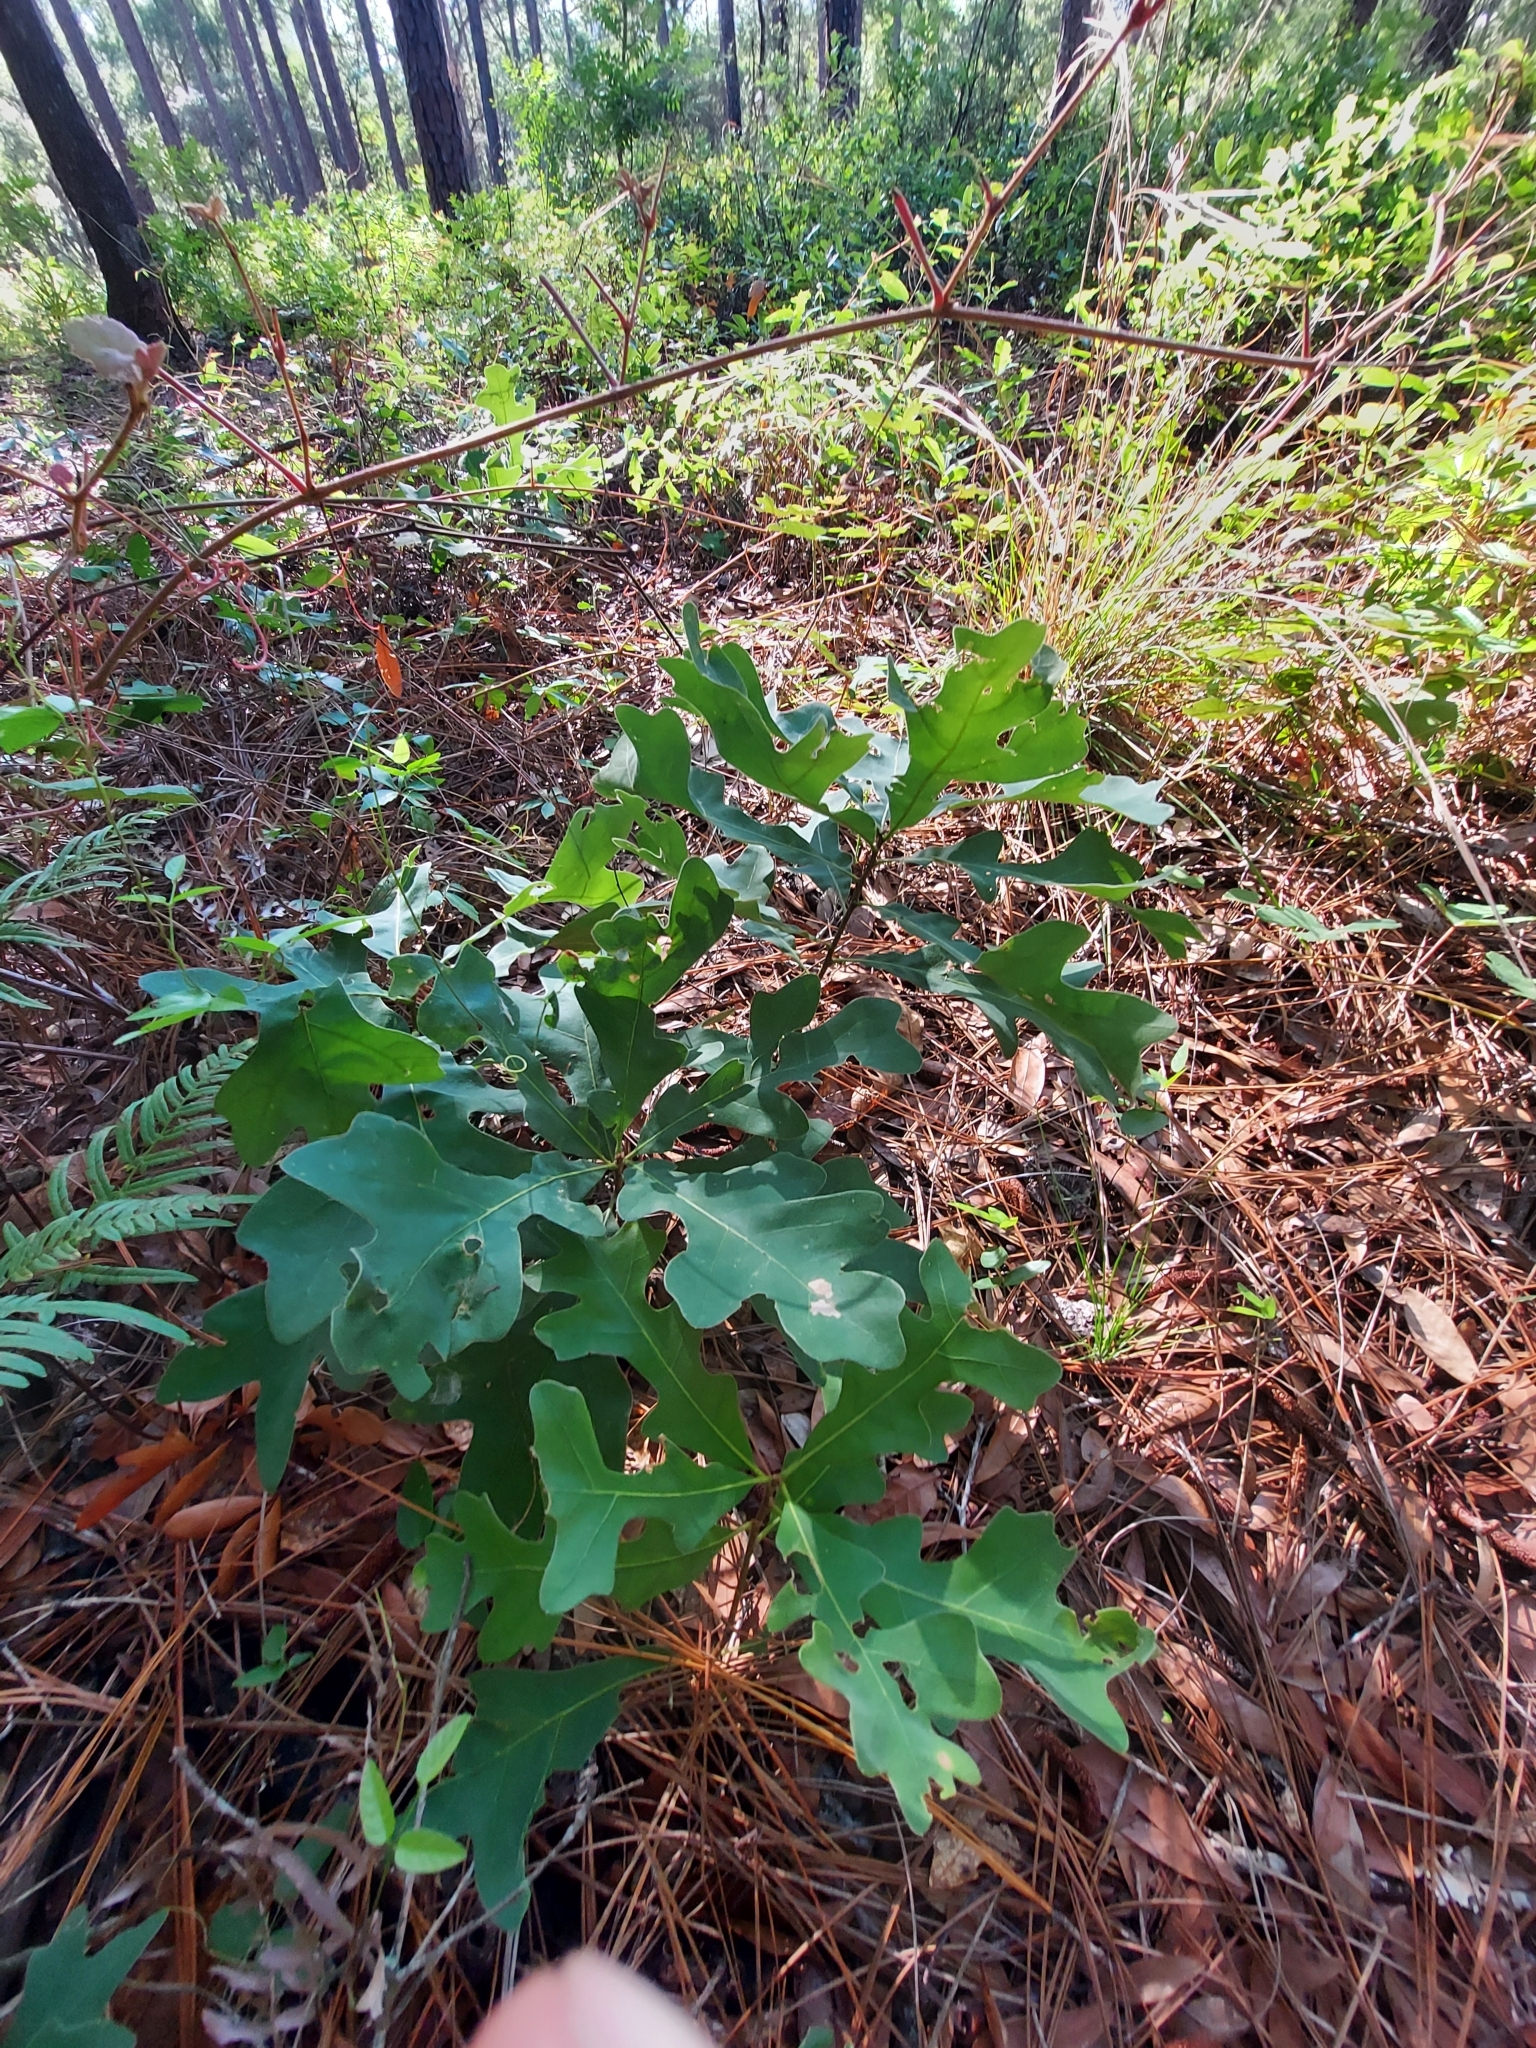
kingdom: Plantae
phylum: Tracheophyta
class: Magnoliopsida
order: Fagales
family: Fagaceae
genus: Quercus
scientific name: Quercus margaretiae
